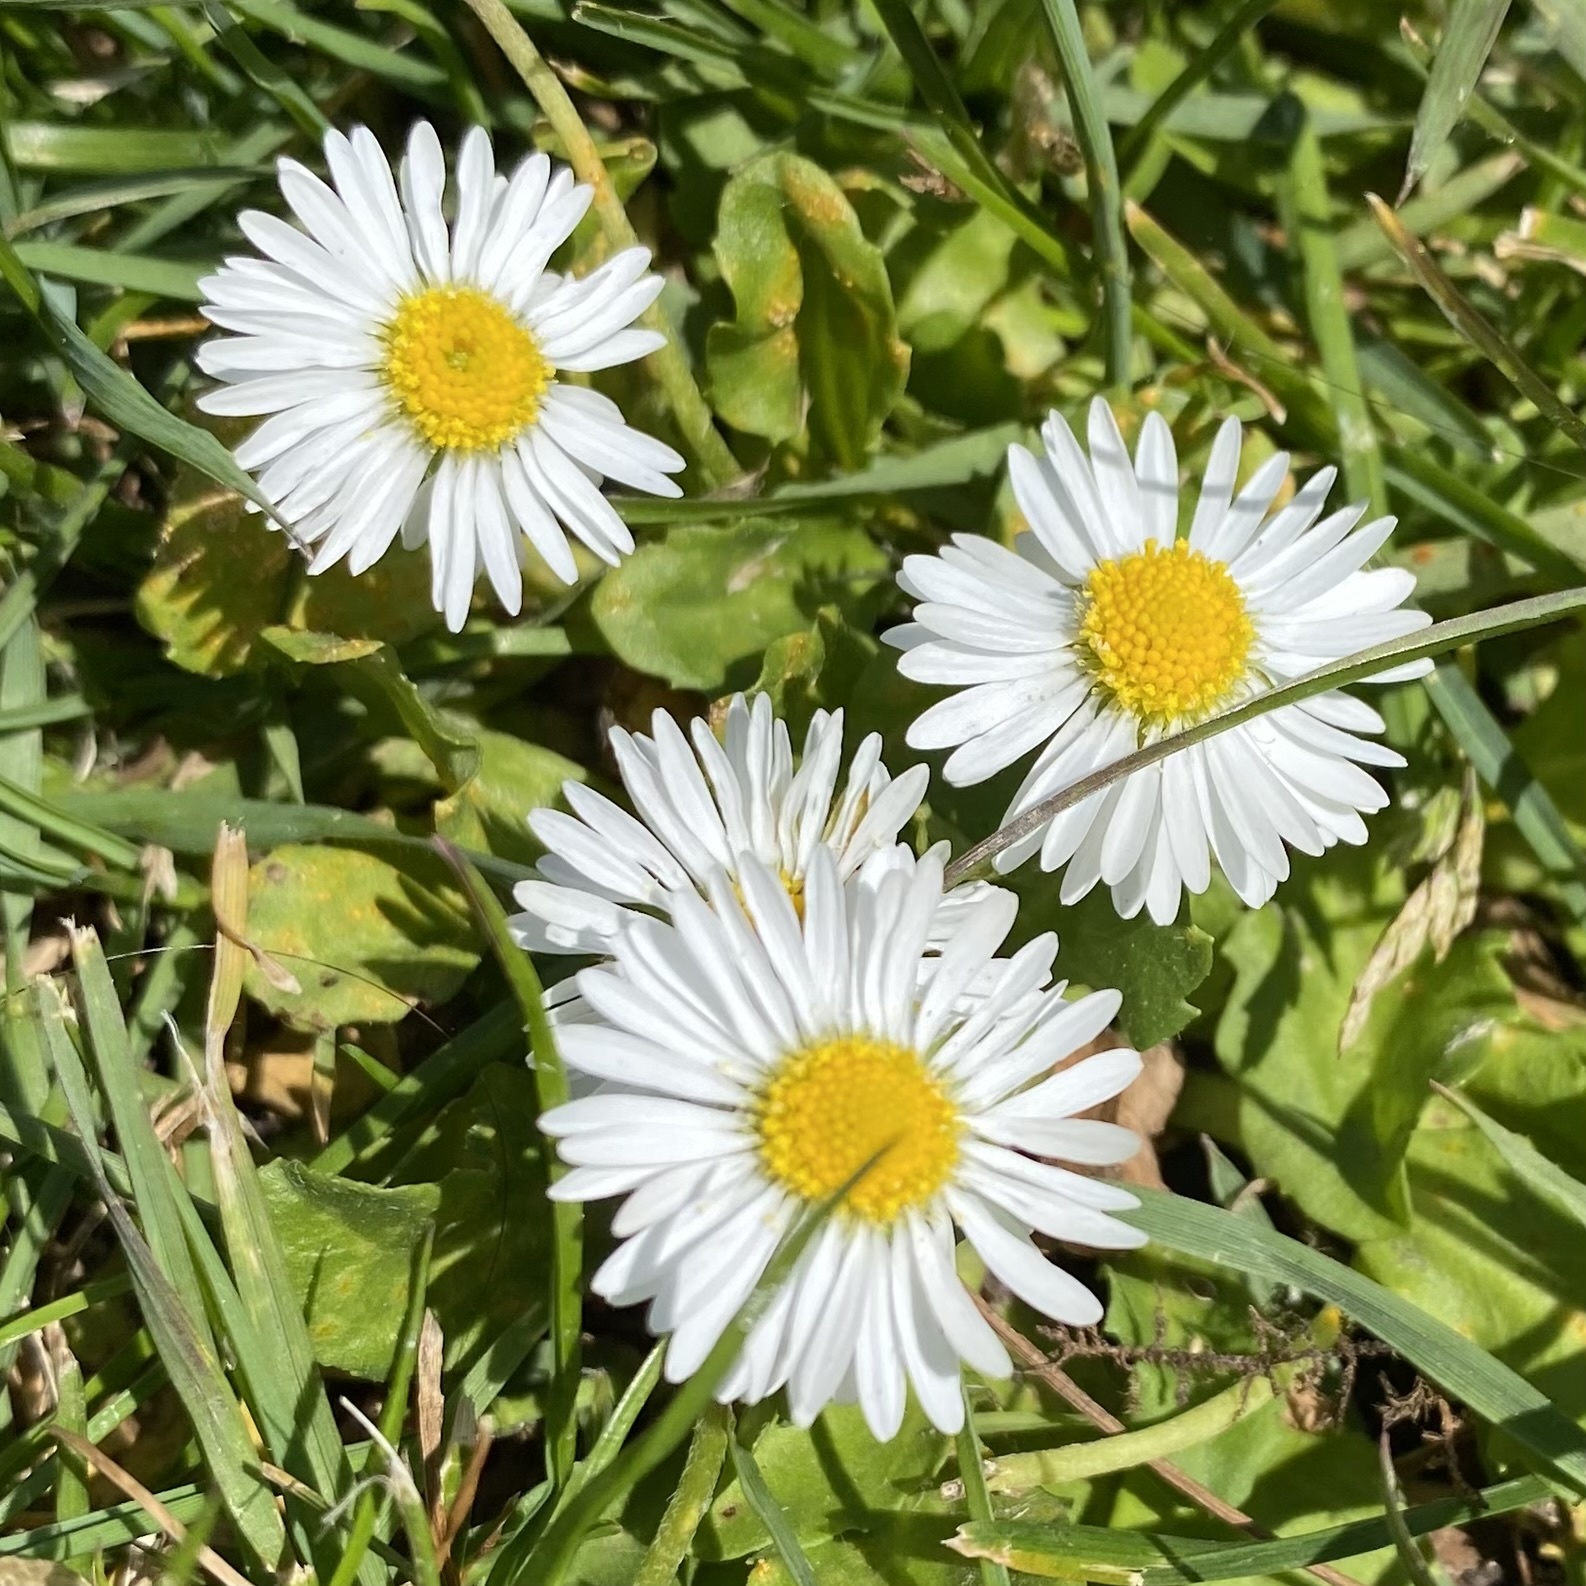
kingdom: Plantae
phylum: Tracheophyta
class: Magnoliopsida
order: Asterales
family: Asteraceae
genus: Bellis
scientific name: Bellis perennis
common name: Lawndaisy
